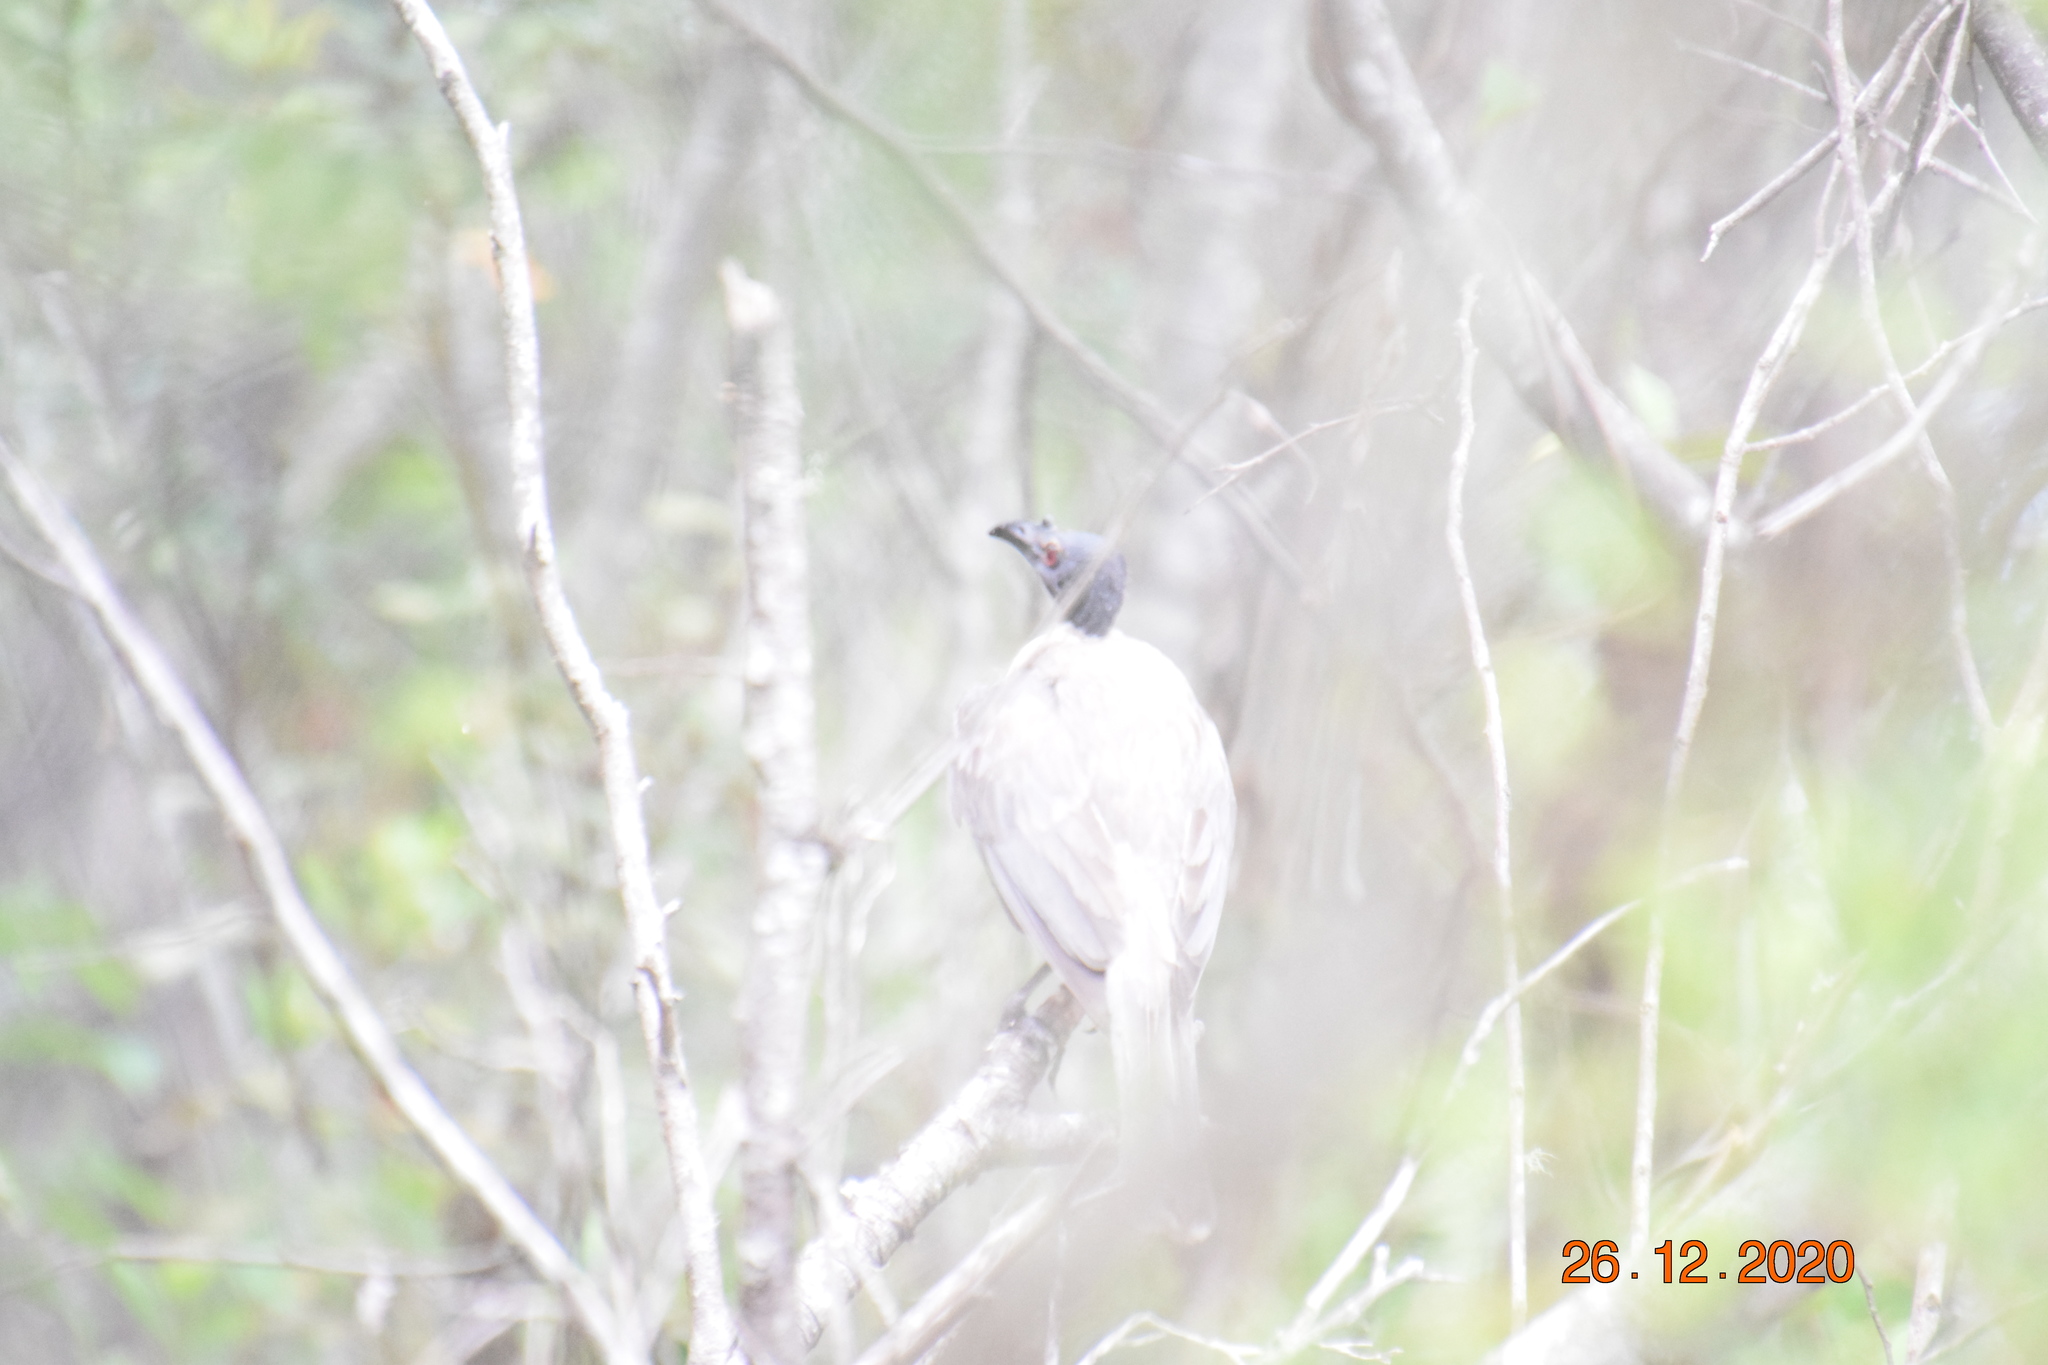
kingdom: Animalia
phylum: Chordata
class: Aves
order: Passeriformes
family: Meliphagidae
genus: Philemon
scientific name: Philemon corniculatus
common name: Noisy friarbird
